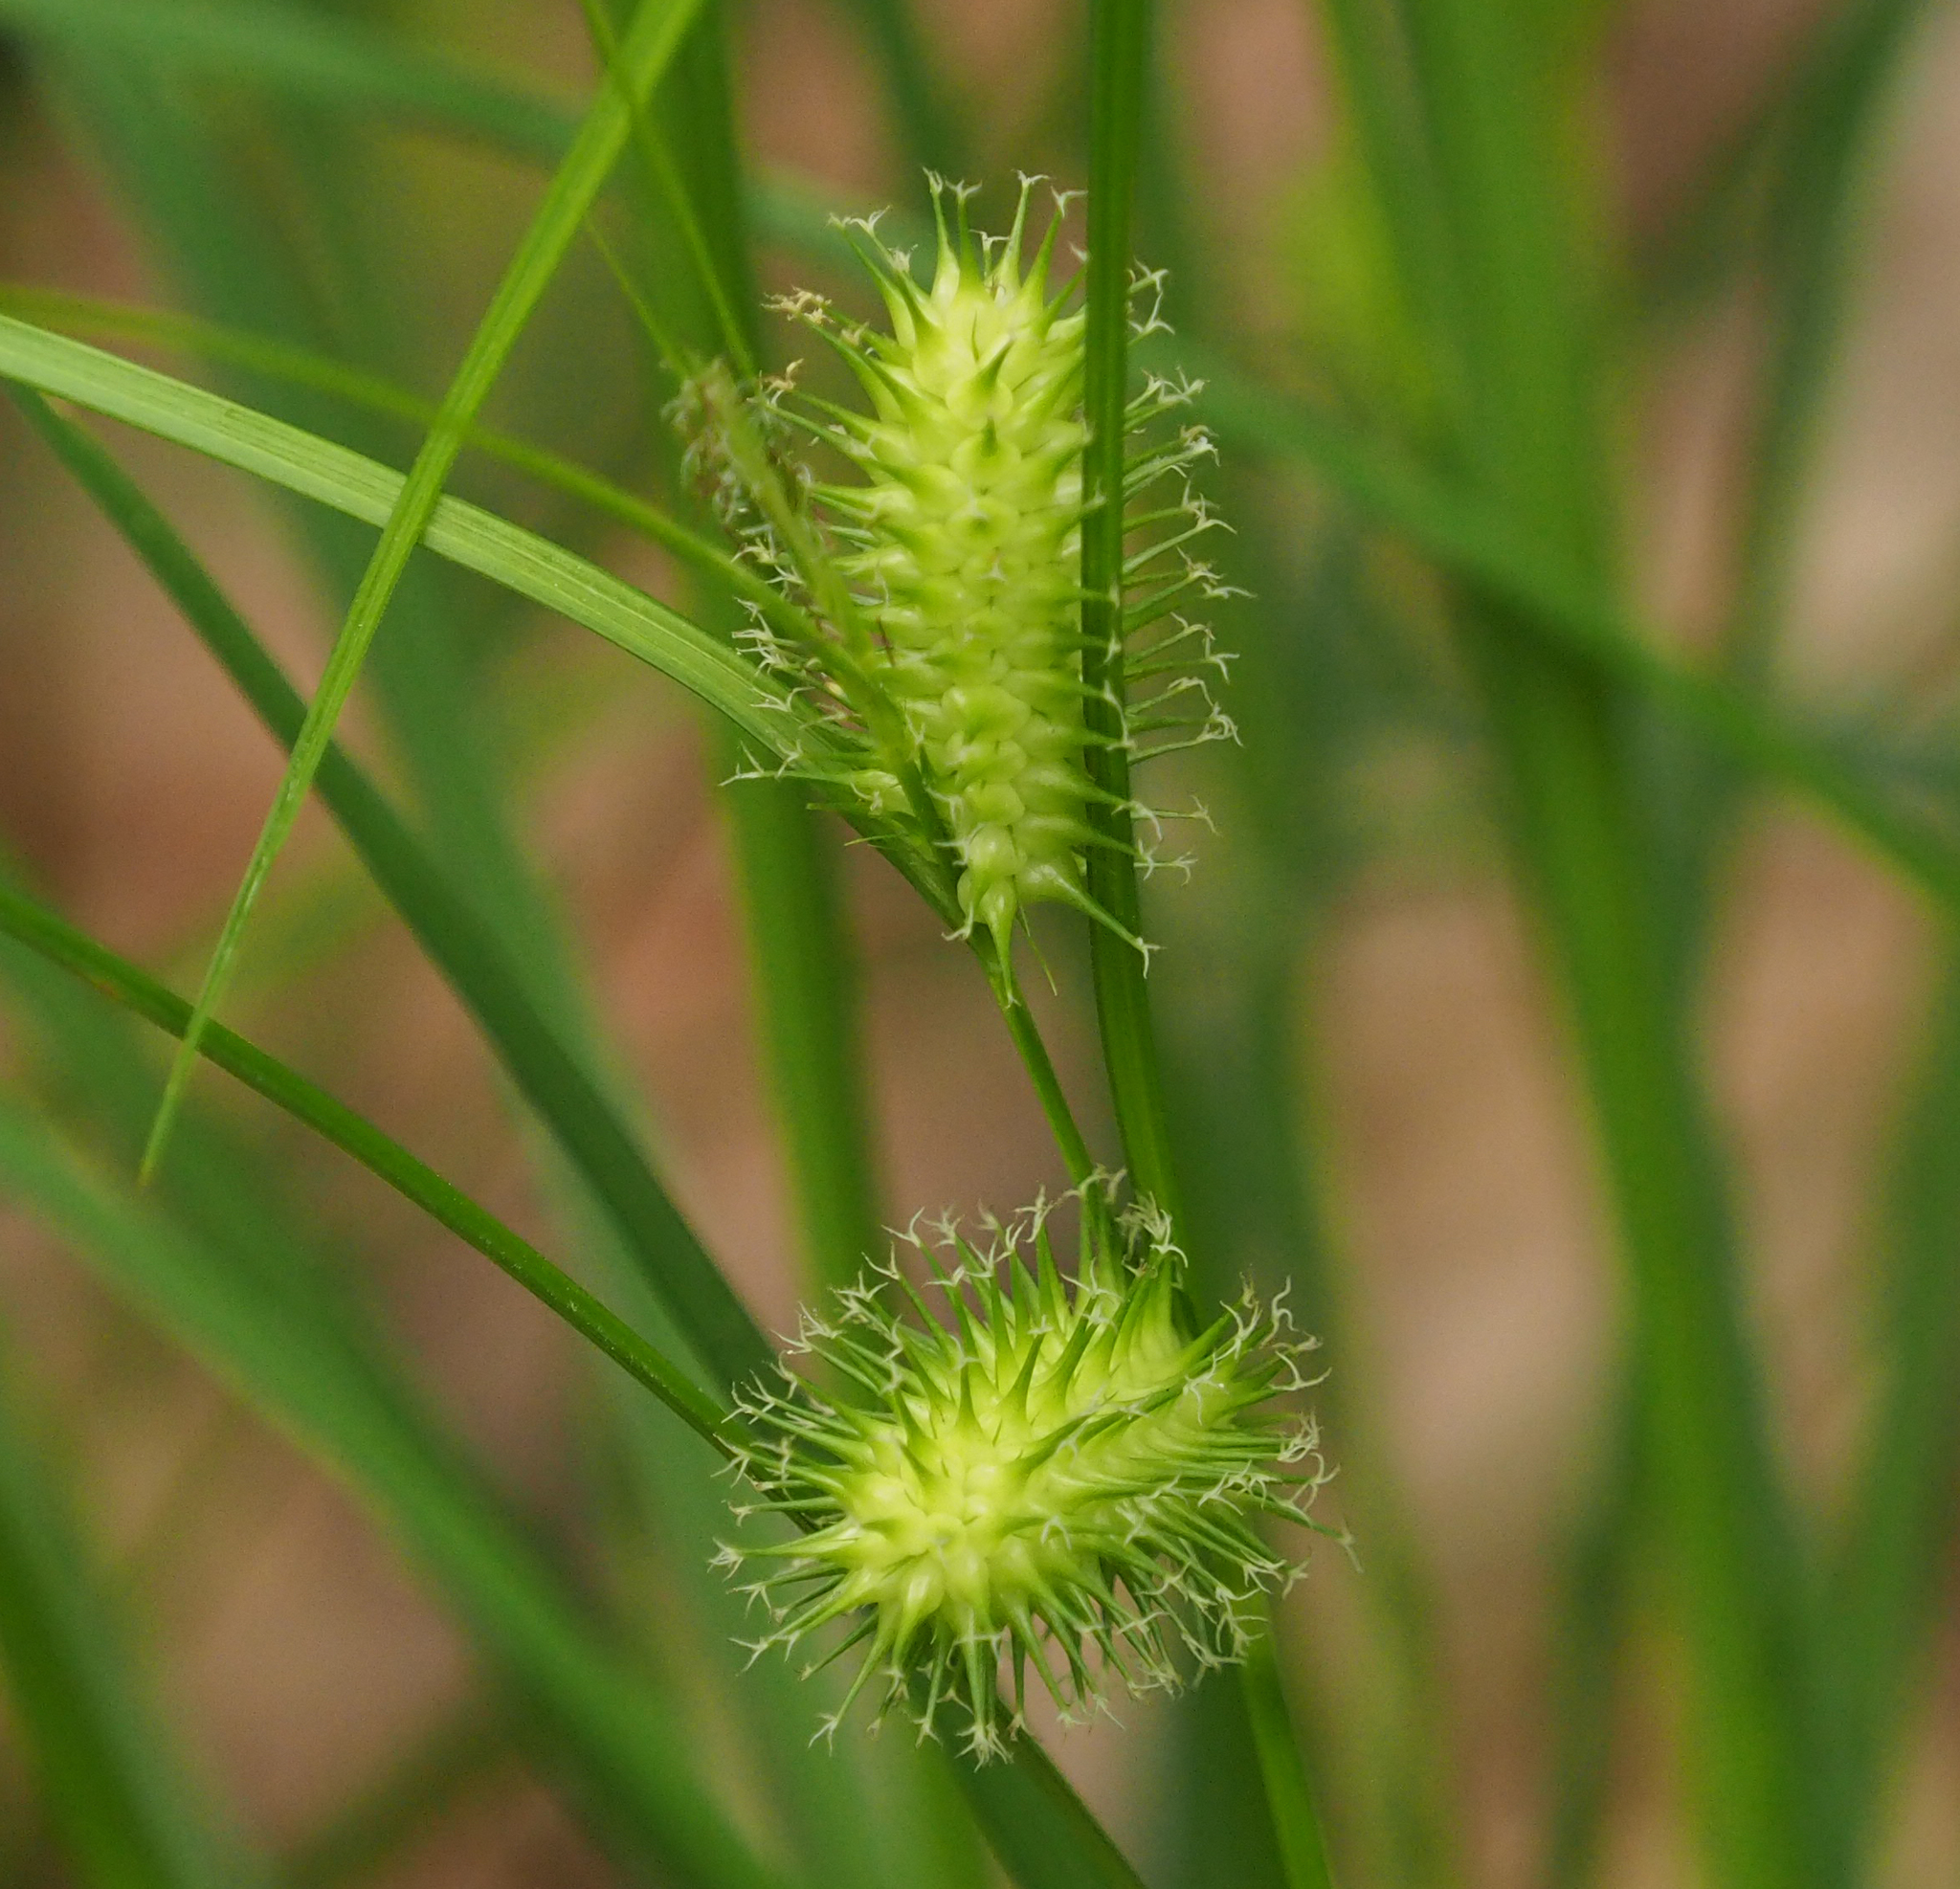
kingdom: Plantae
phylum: Tracheophyta
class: Liliopsida
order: Poales
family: Cyperaceae
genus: Carex
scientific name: Carex lurida
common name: Sallow sedge
